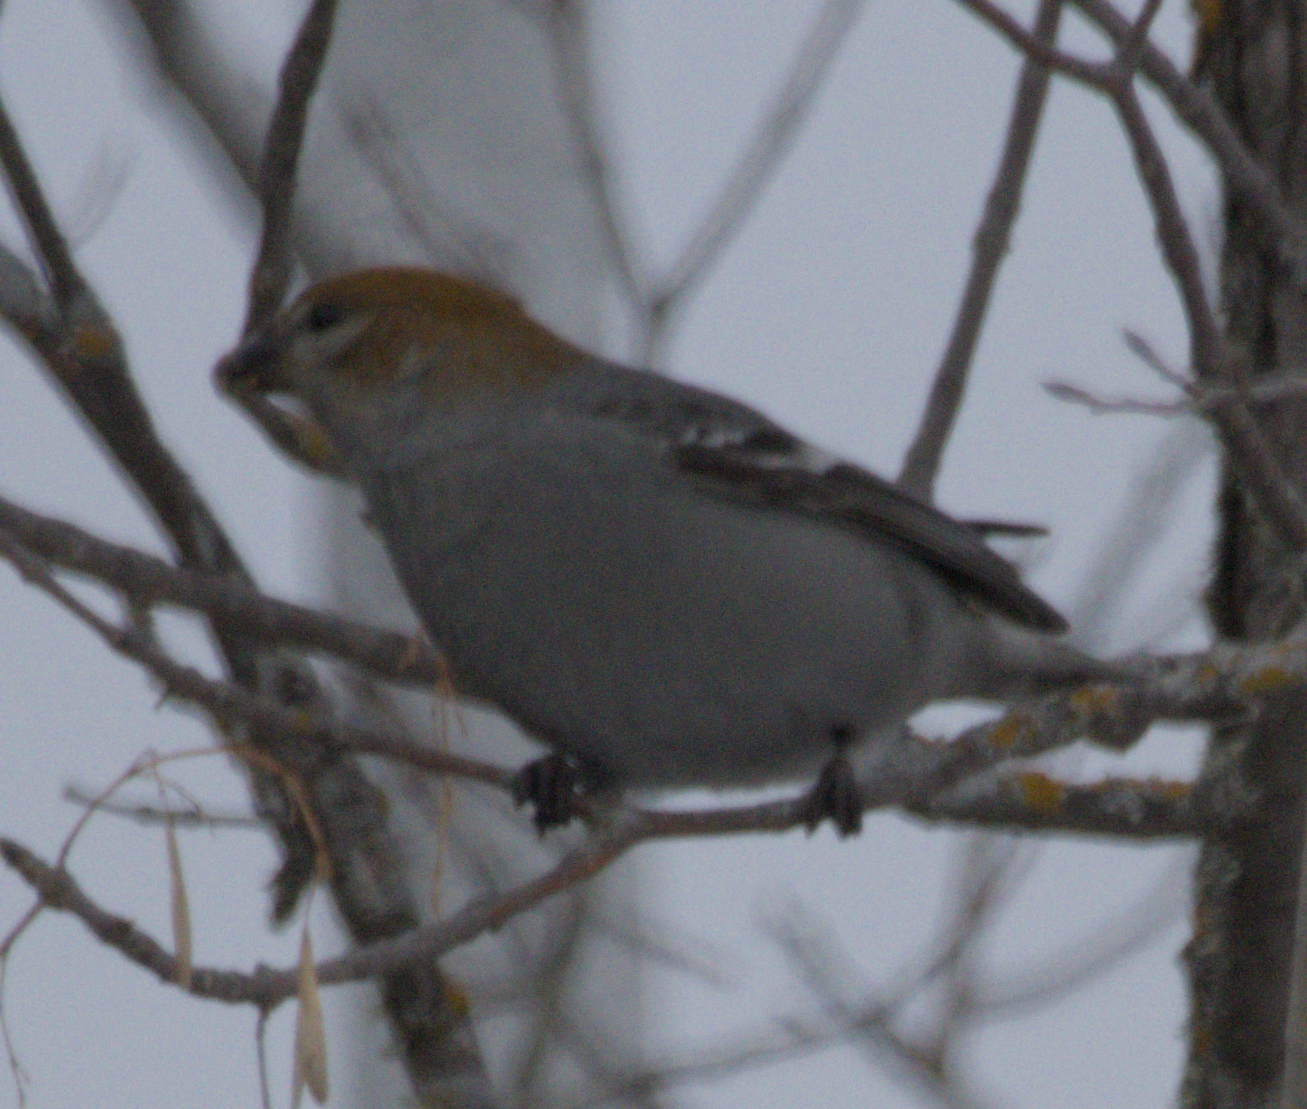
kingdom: Animalia
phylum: Chordata
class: Aves
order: Passeriformes
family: Fringillidae
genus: Pinicola
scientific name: Pinicola enucleator
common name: Pine grosbeak
